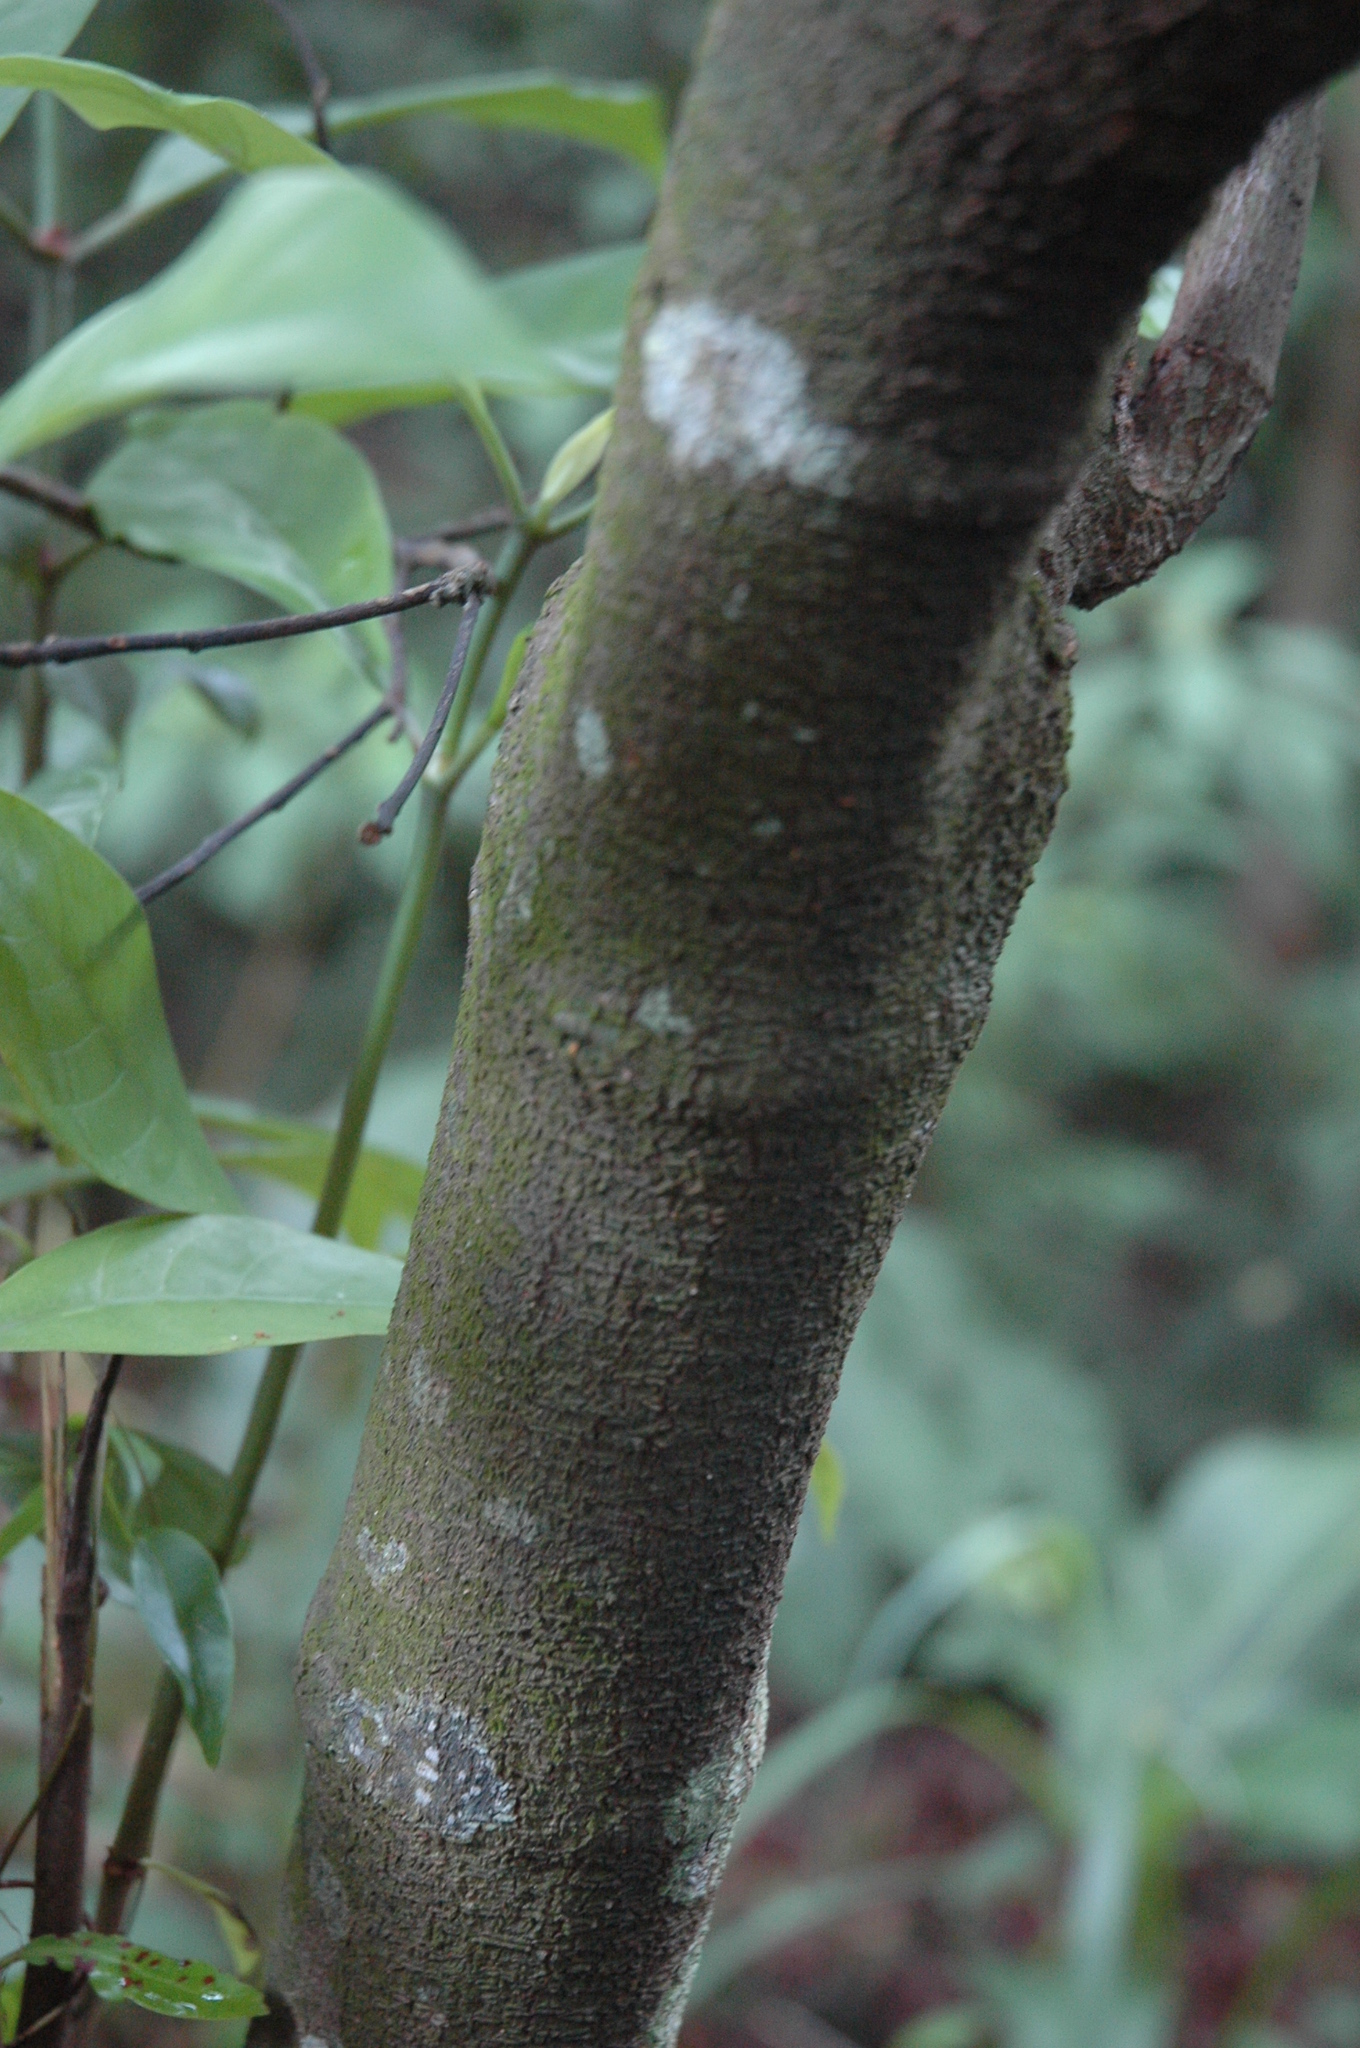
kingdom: Plantae
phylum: Tracheophyta
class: Magnoliopsida
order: Gentianales
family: Rubiaceae
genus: Psychotria
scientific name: Psychotria asiatica
